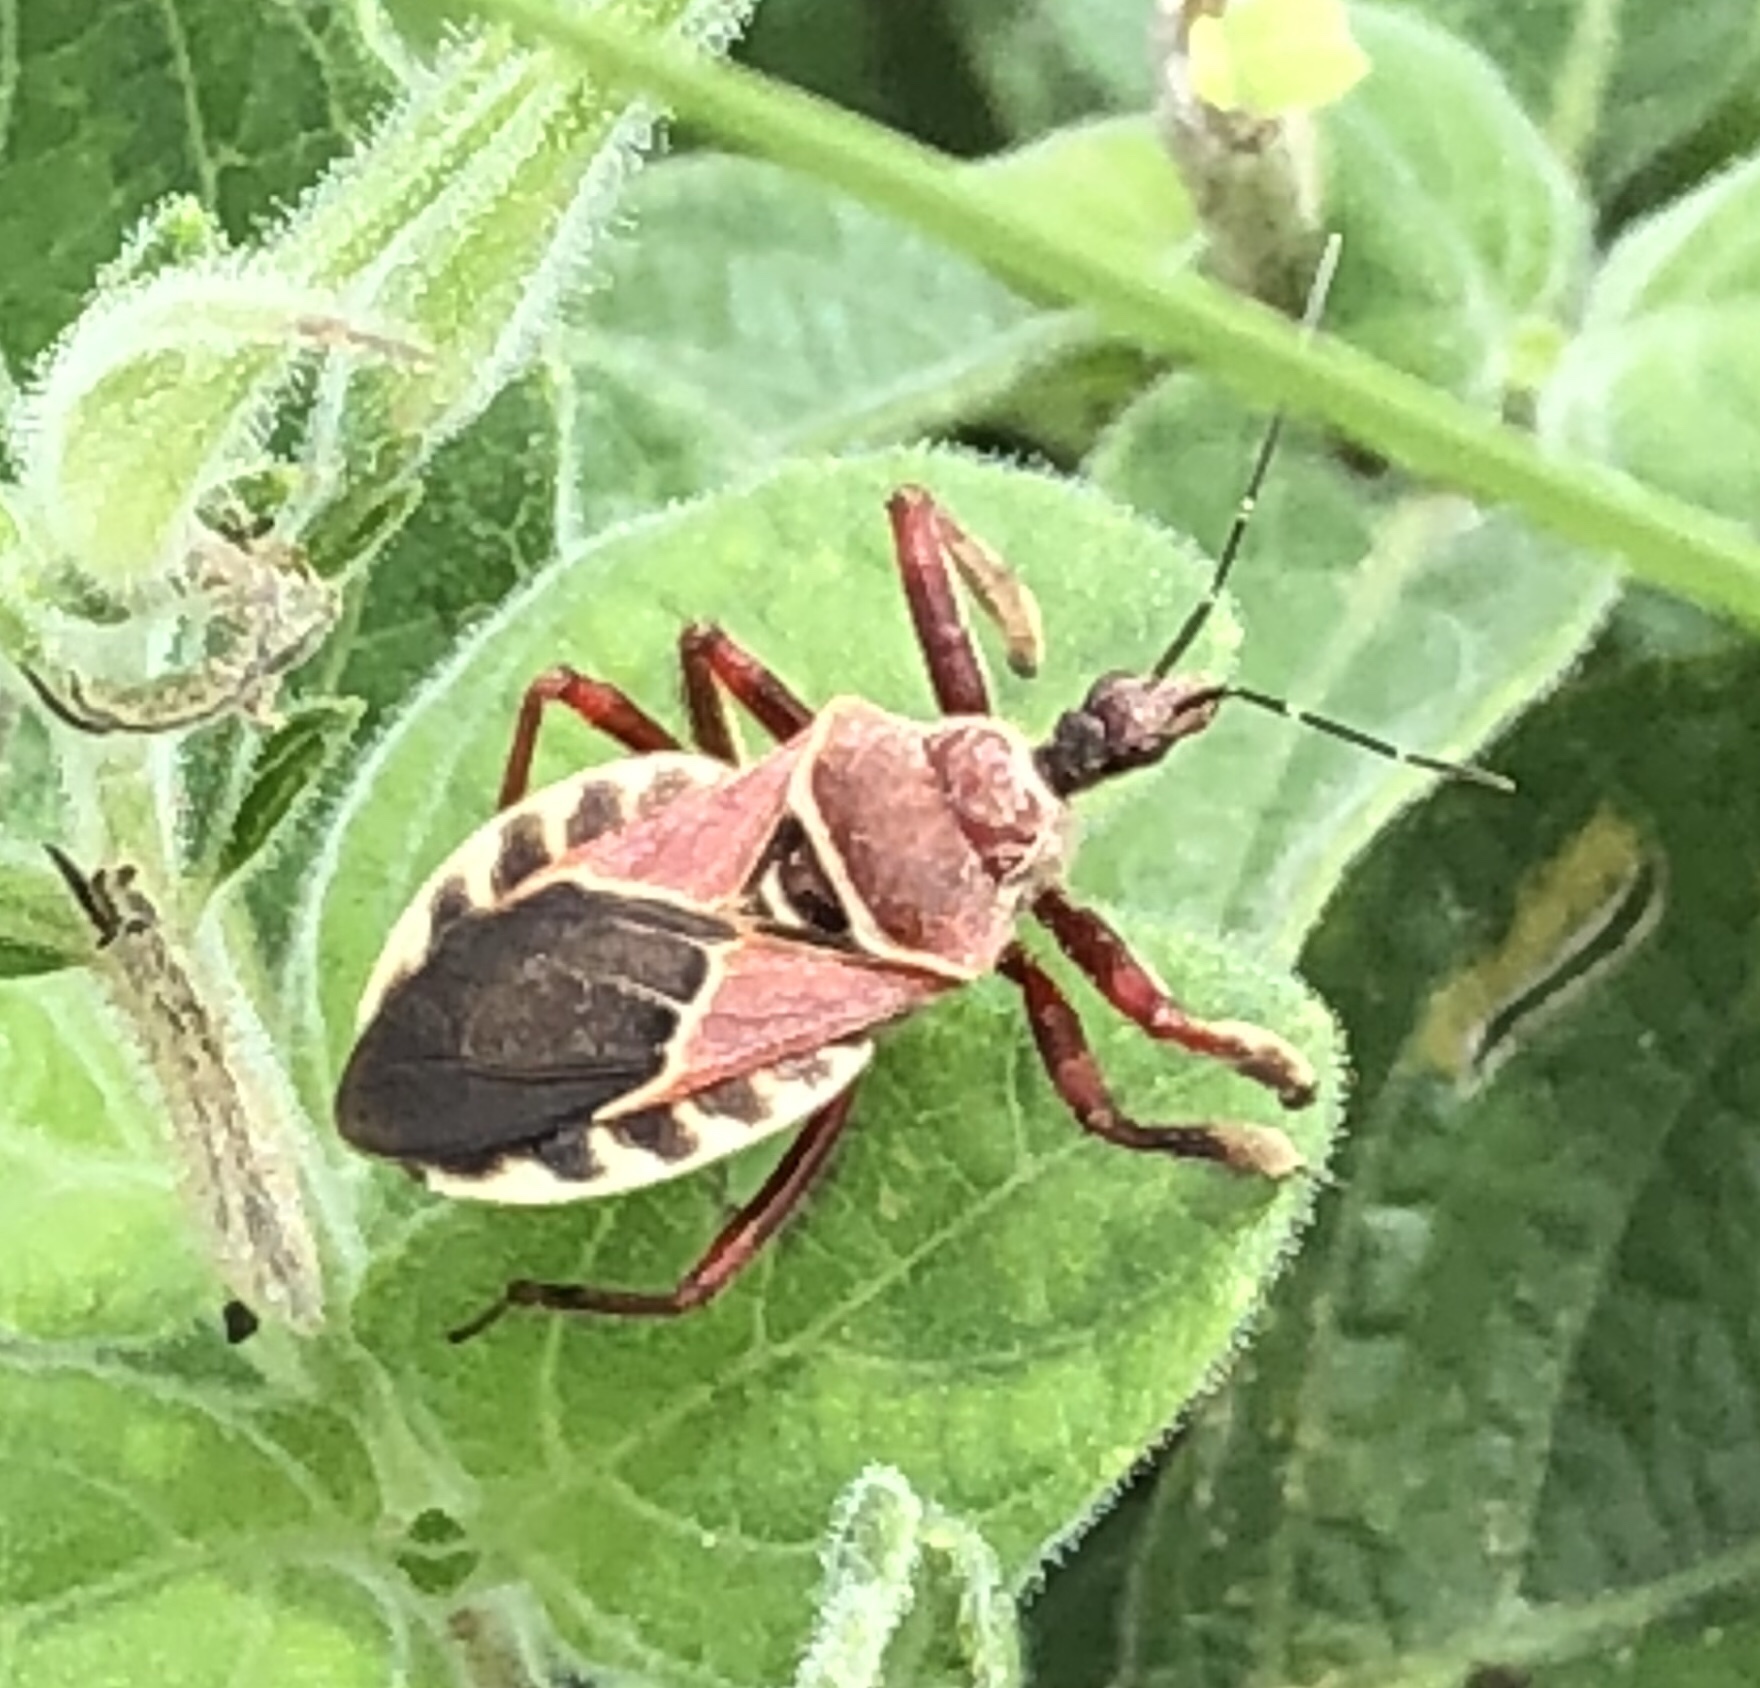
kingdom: Animalia
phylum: Arthropoda
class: Insecta
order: Hemiptera
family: Reduviidae
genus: Apiomerus
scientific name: Apiomerus spissipes
